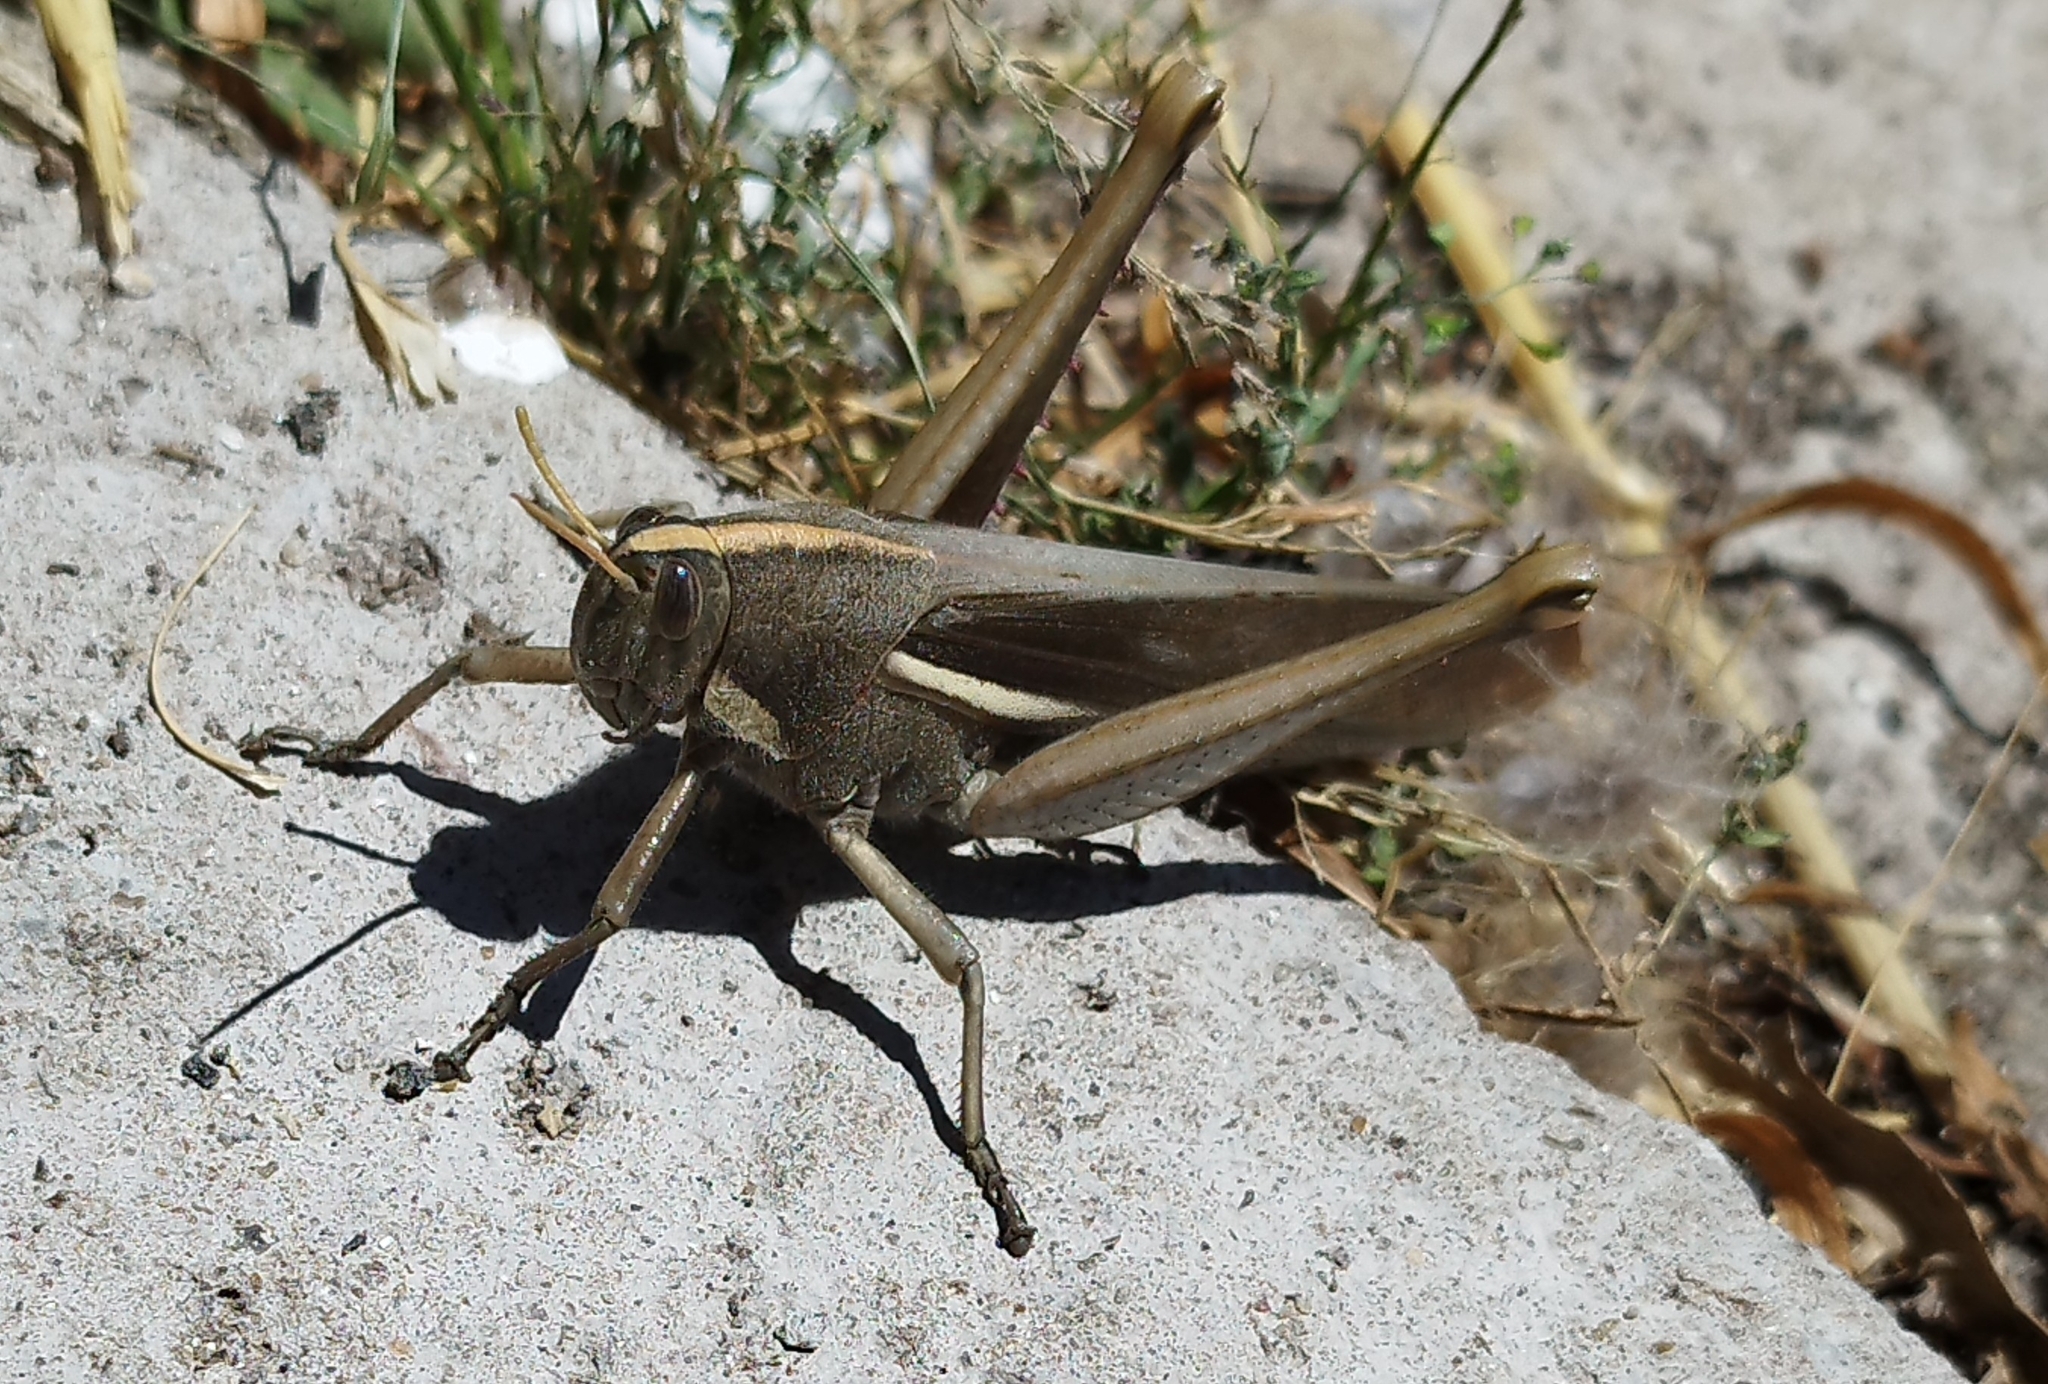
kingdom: Animalia
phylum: Arthropoda
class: Insecta
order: Orthoptera
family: Acrididae
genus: Schistocerca
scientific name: Schistocerca flavofasciata
